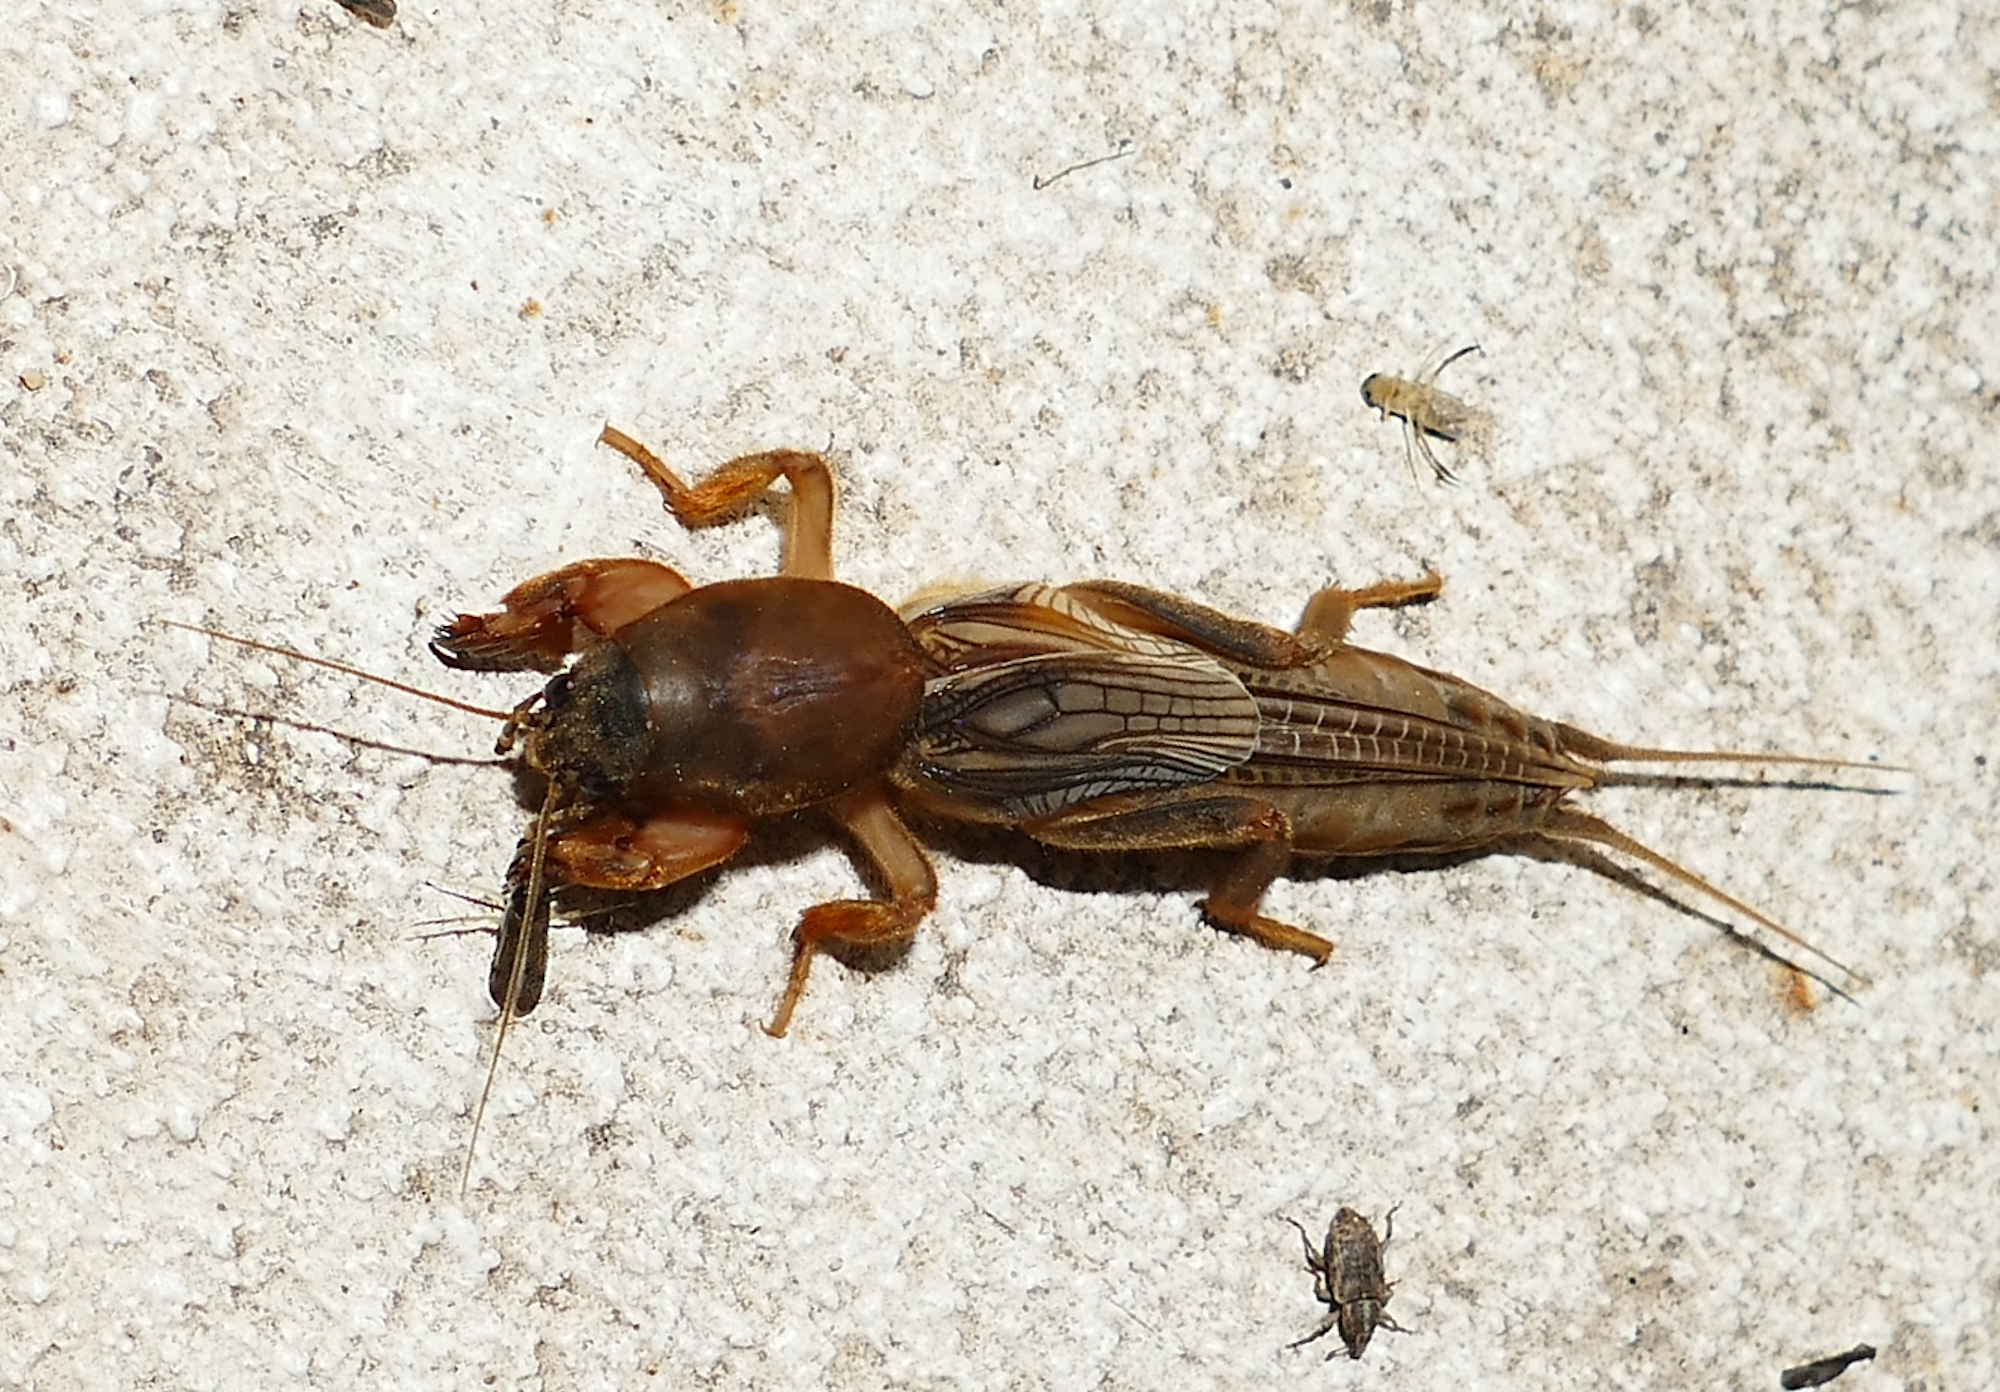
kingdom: Animalia
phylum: Arthropoda
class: Insecta
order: Orthoptera
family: Gryllotalpidae
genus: Neocurtilla
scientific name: Neocurtilla hexadactyla
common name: Northern mole cricket
